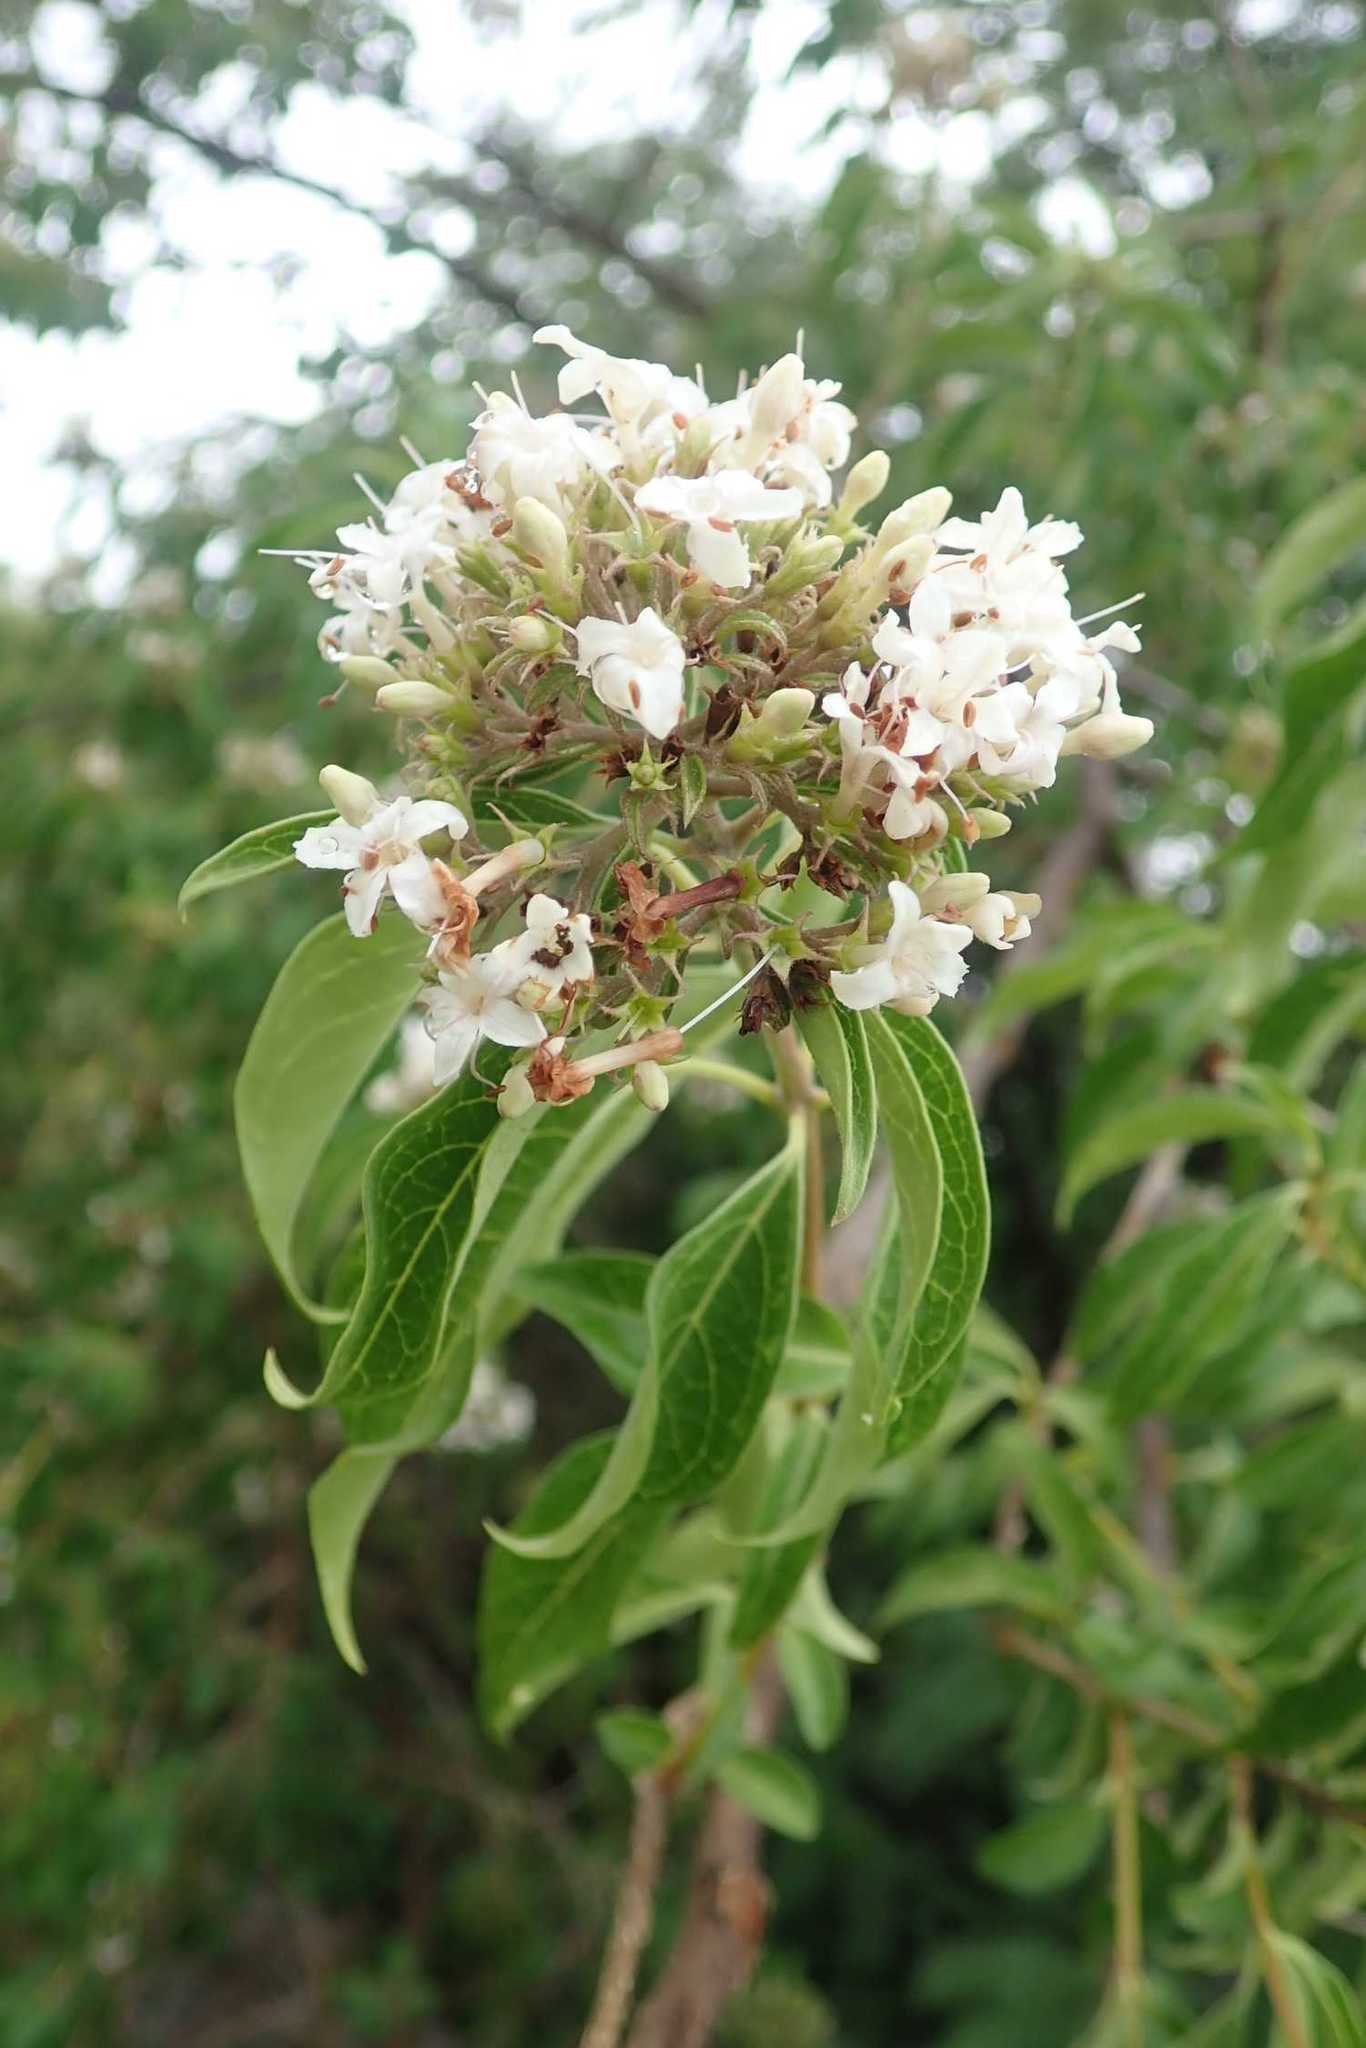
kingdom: Plantae
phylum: Tracheophyta
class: Magnoliopsida
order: Lamiales
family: Lamiaceae
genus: Volkameria
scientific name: Volkameria glabra
